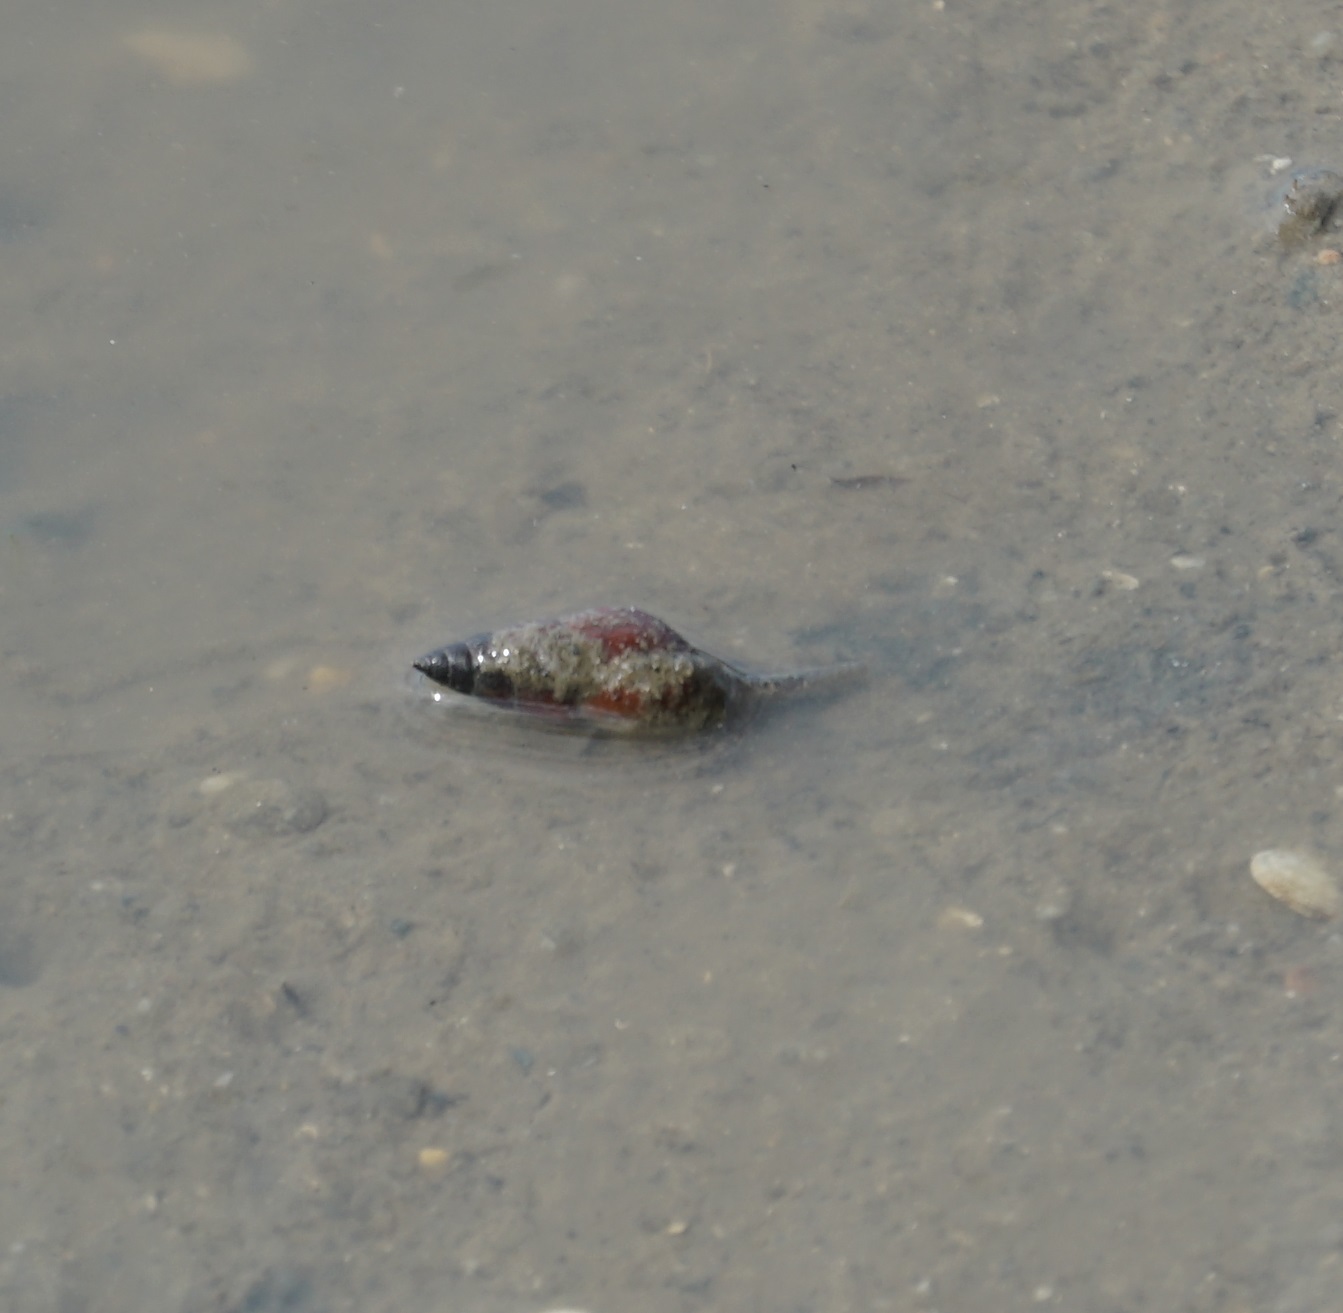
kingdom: Animalia
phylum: Mollusca
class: Gastropoda
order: Neogastropoda
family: Nassariidae
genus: Nassarius
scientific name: Nassarius dorsatus
